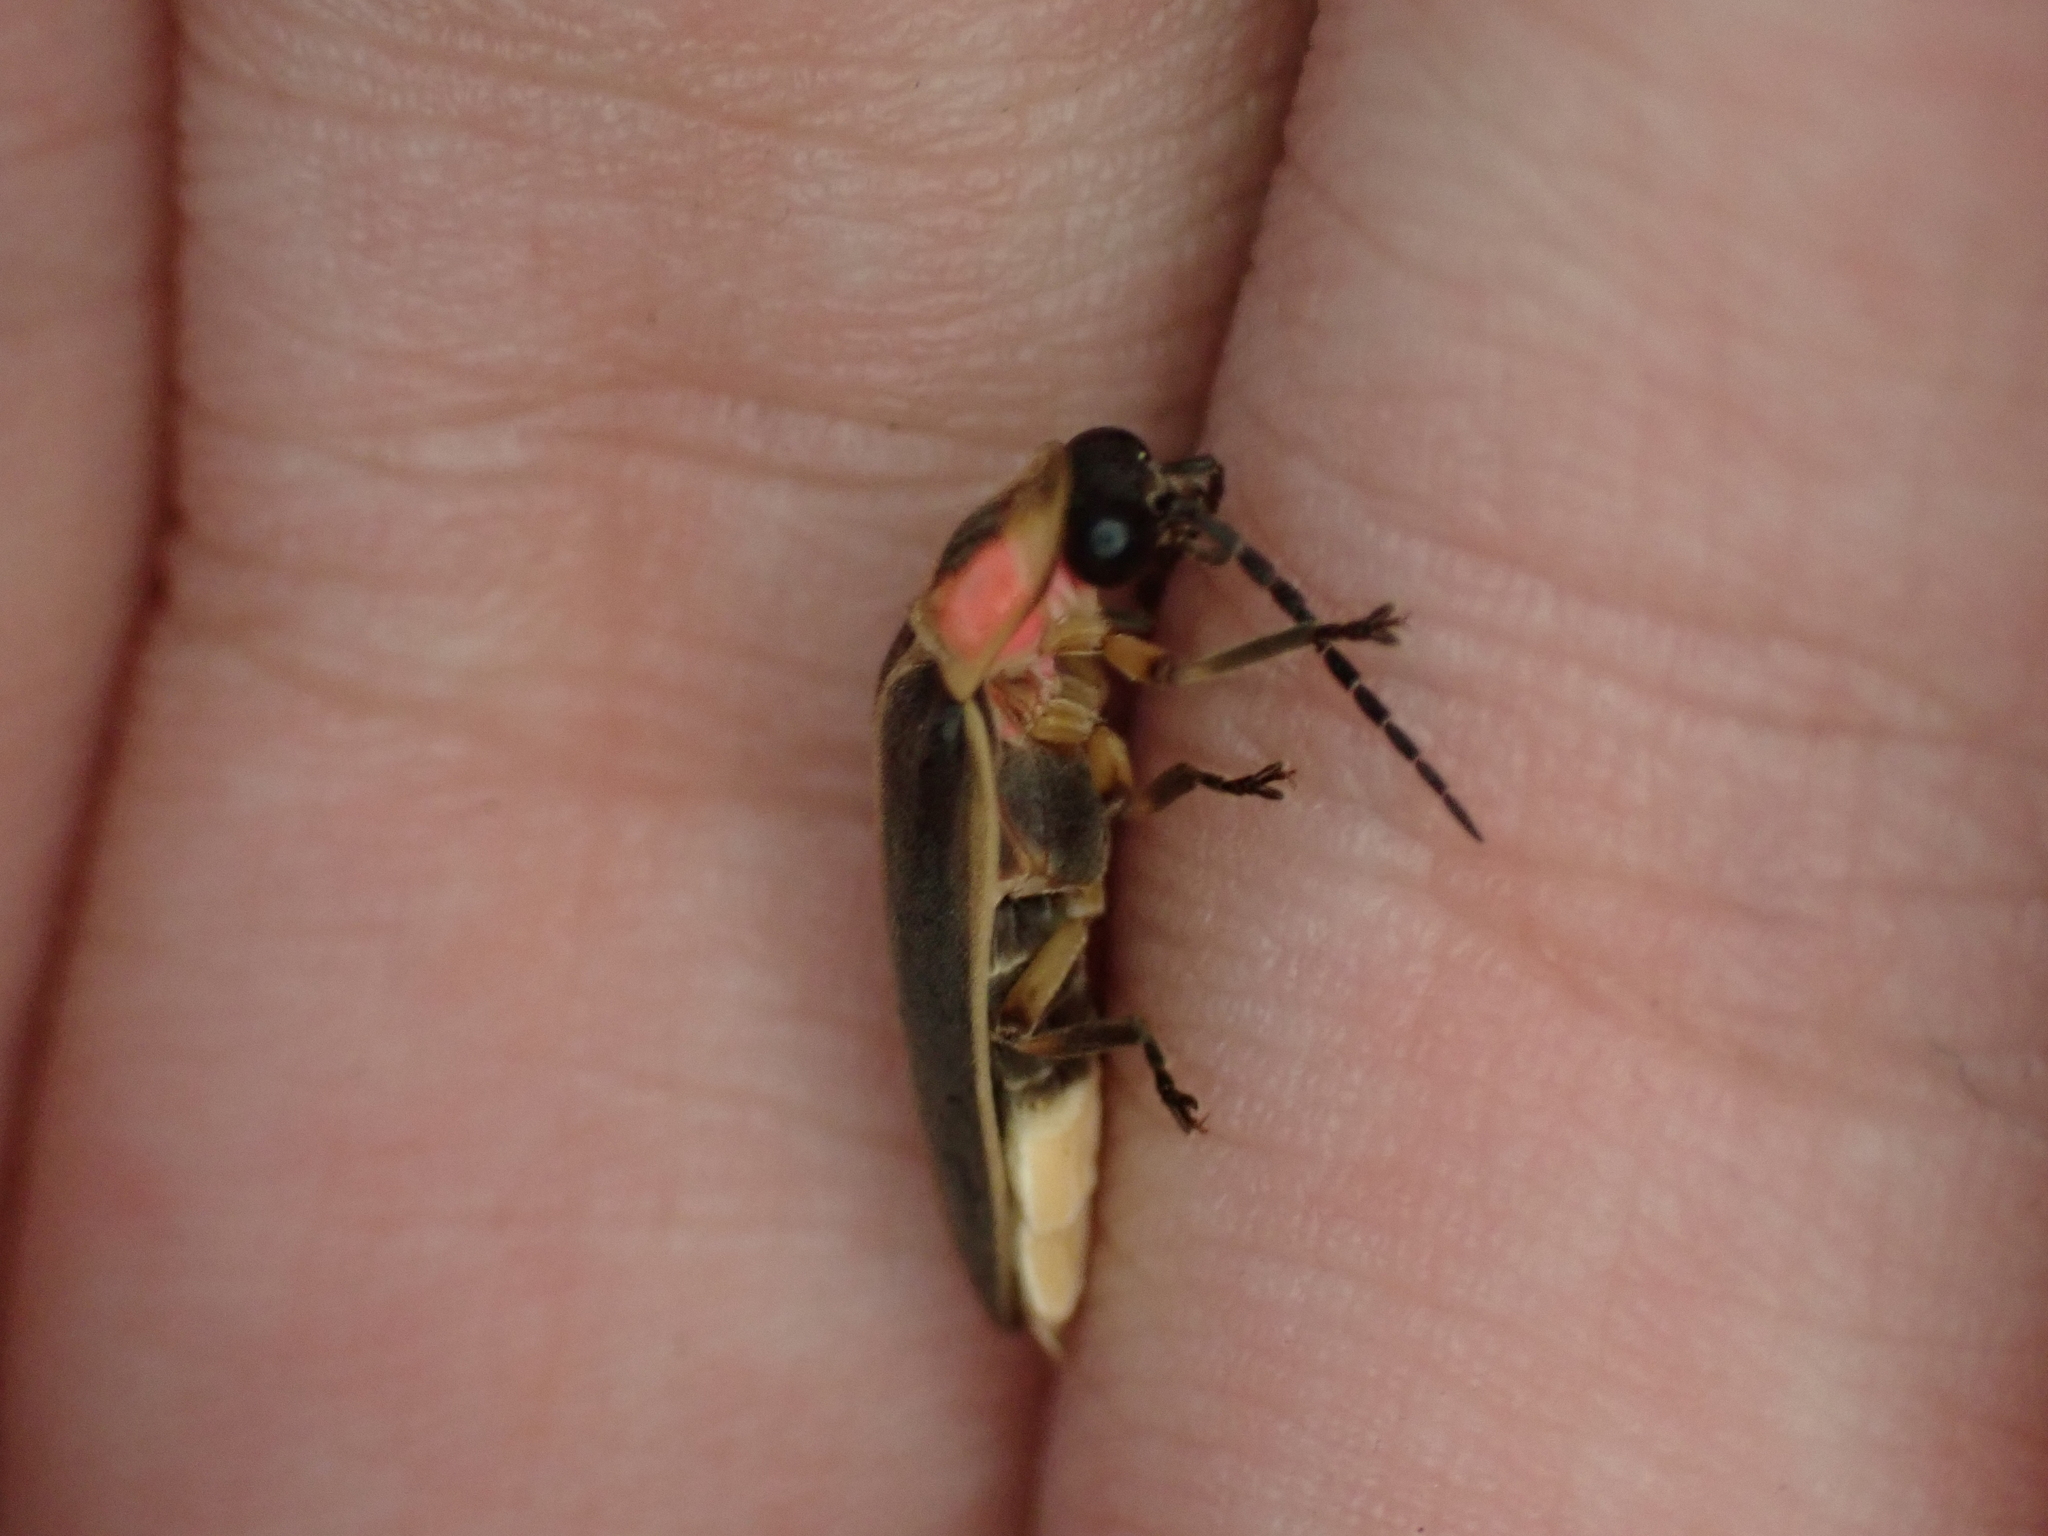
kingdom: Animalia
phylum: Arthropoda
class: Insecta
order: Coleoptera
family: Lampyridae
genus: Photinus
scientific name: Photinus pyralis
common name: Big dipper firefly
